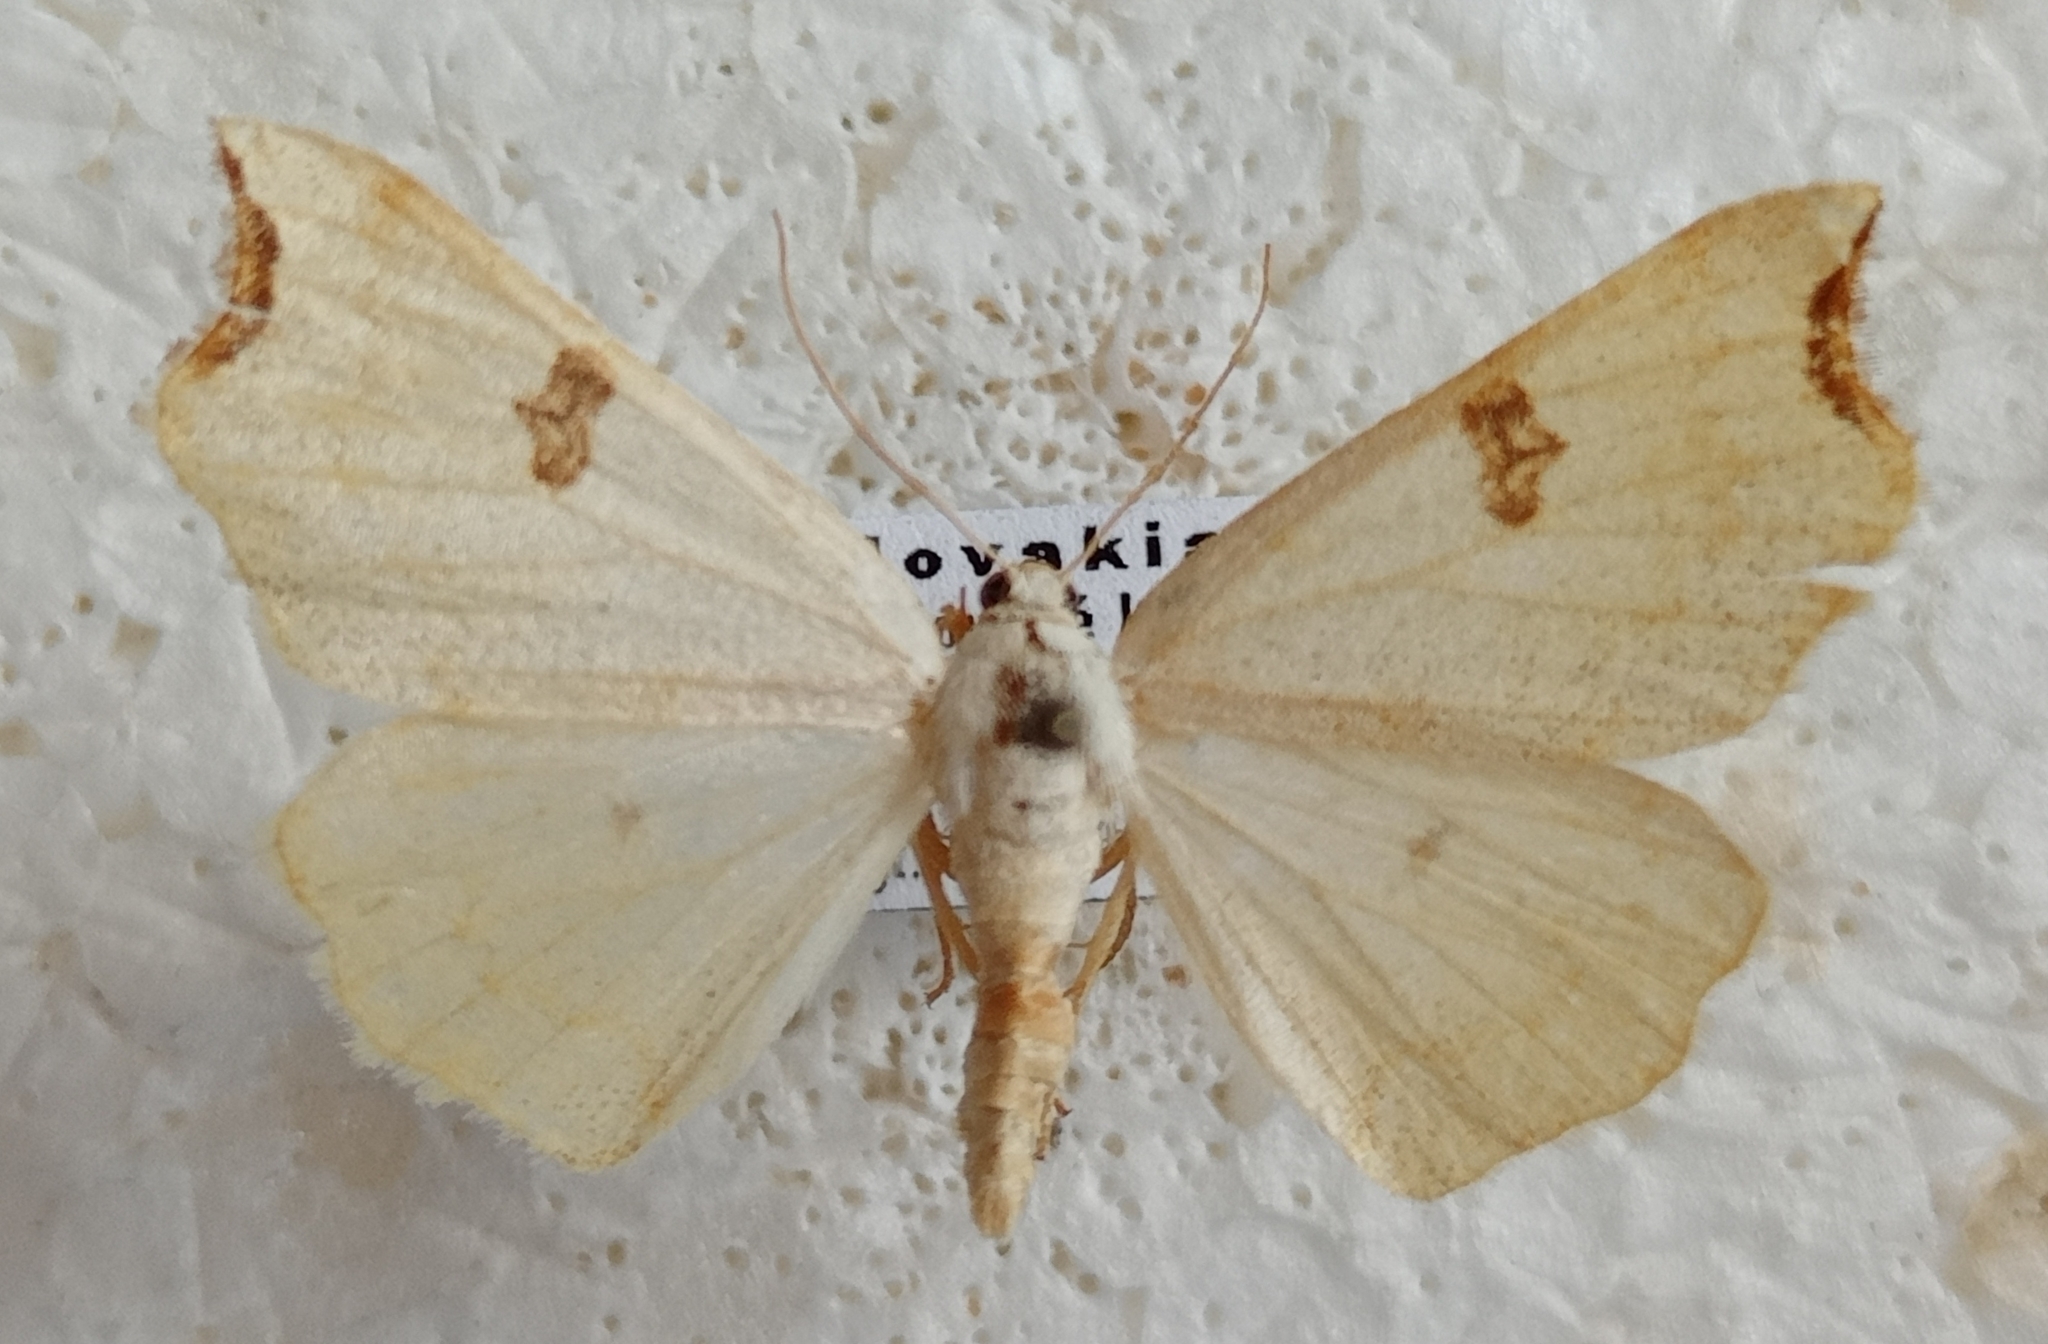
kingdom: Animalia
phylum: Arthropoda
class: Insecta
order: Lepidoptera
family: Geometridae
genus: Eilicrinia
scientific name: Eilicrinia cordiaria
